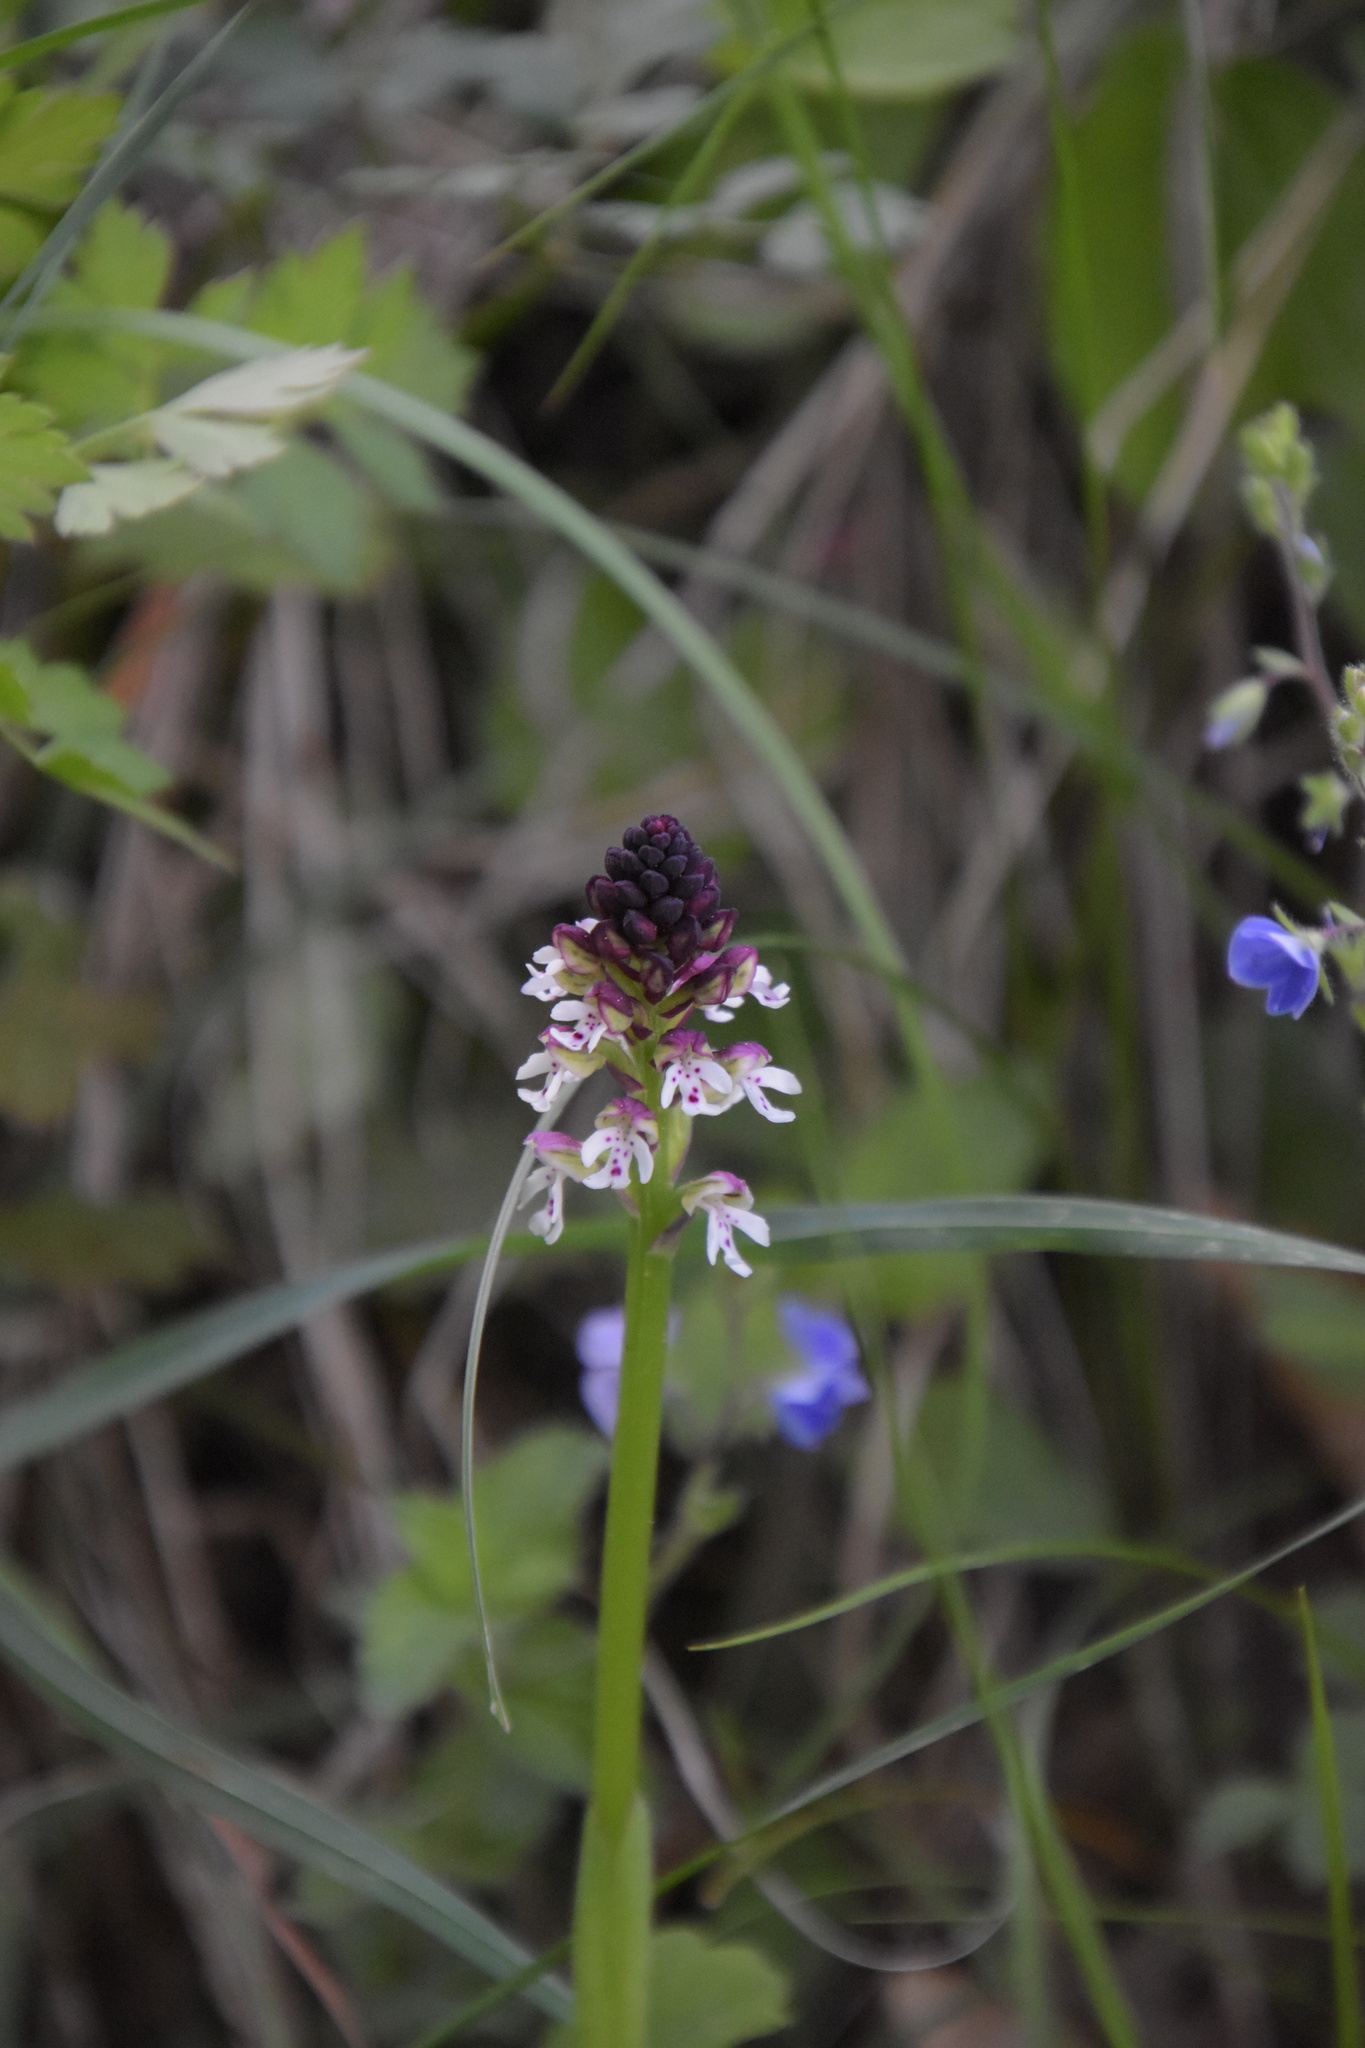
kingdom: Plantae
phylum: Tracheophyta
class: Liliopsida
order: Asparagales
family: Orchidaceae
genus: Neotinea
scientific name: Neotinea ustulata
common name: Burnt orchid
